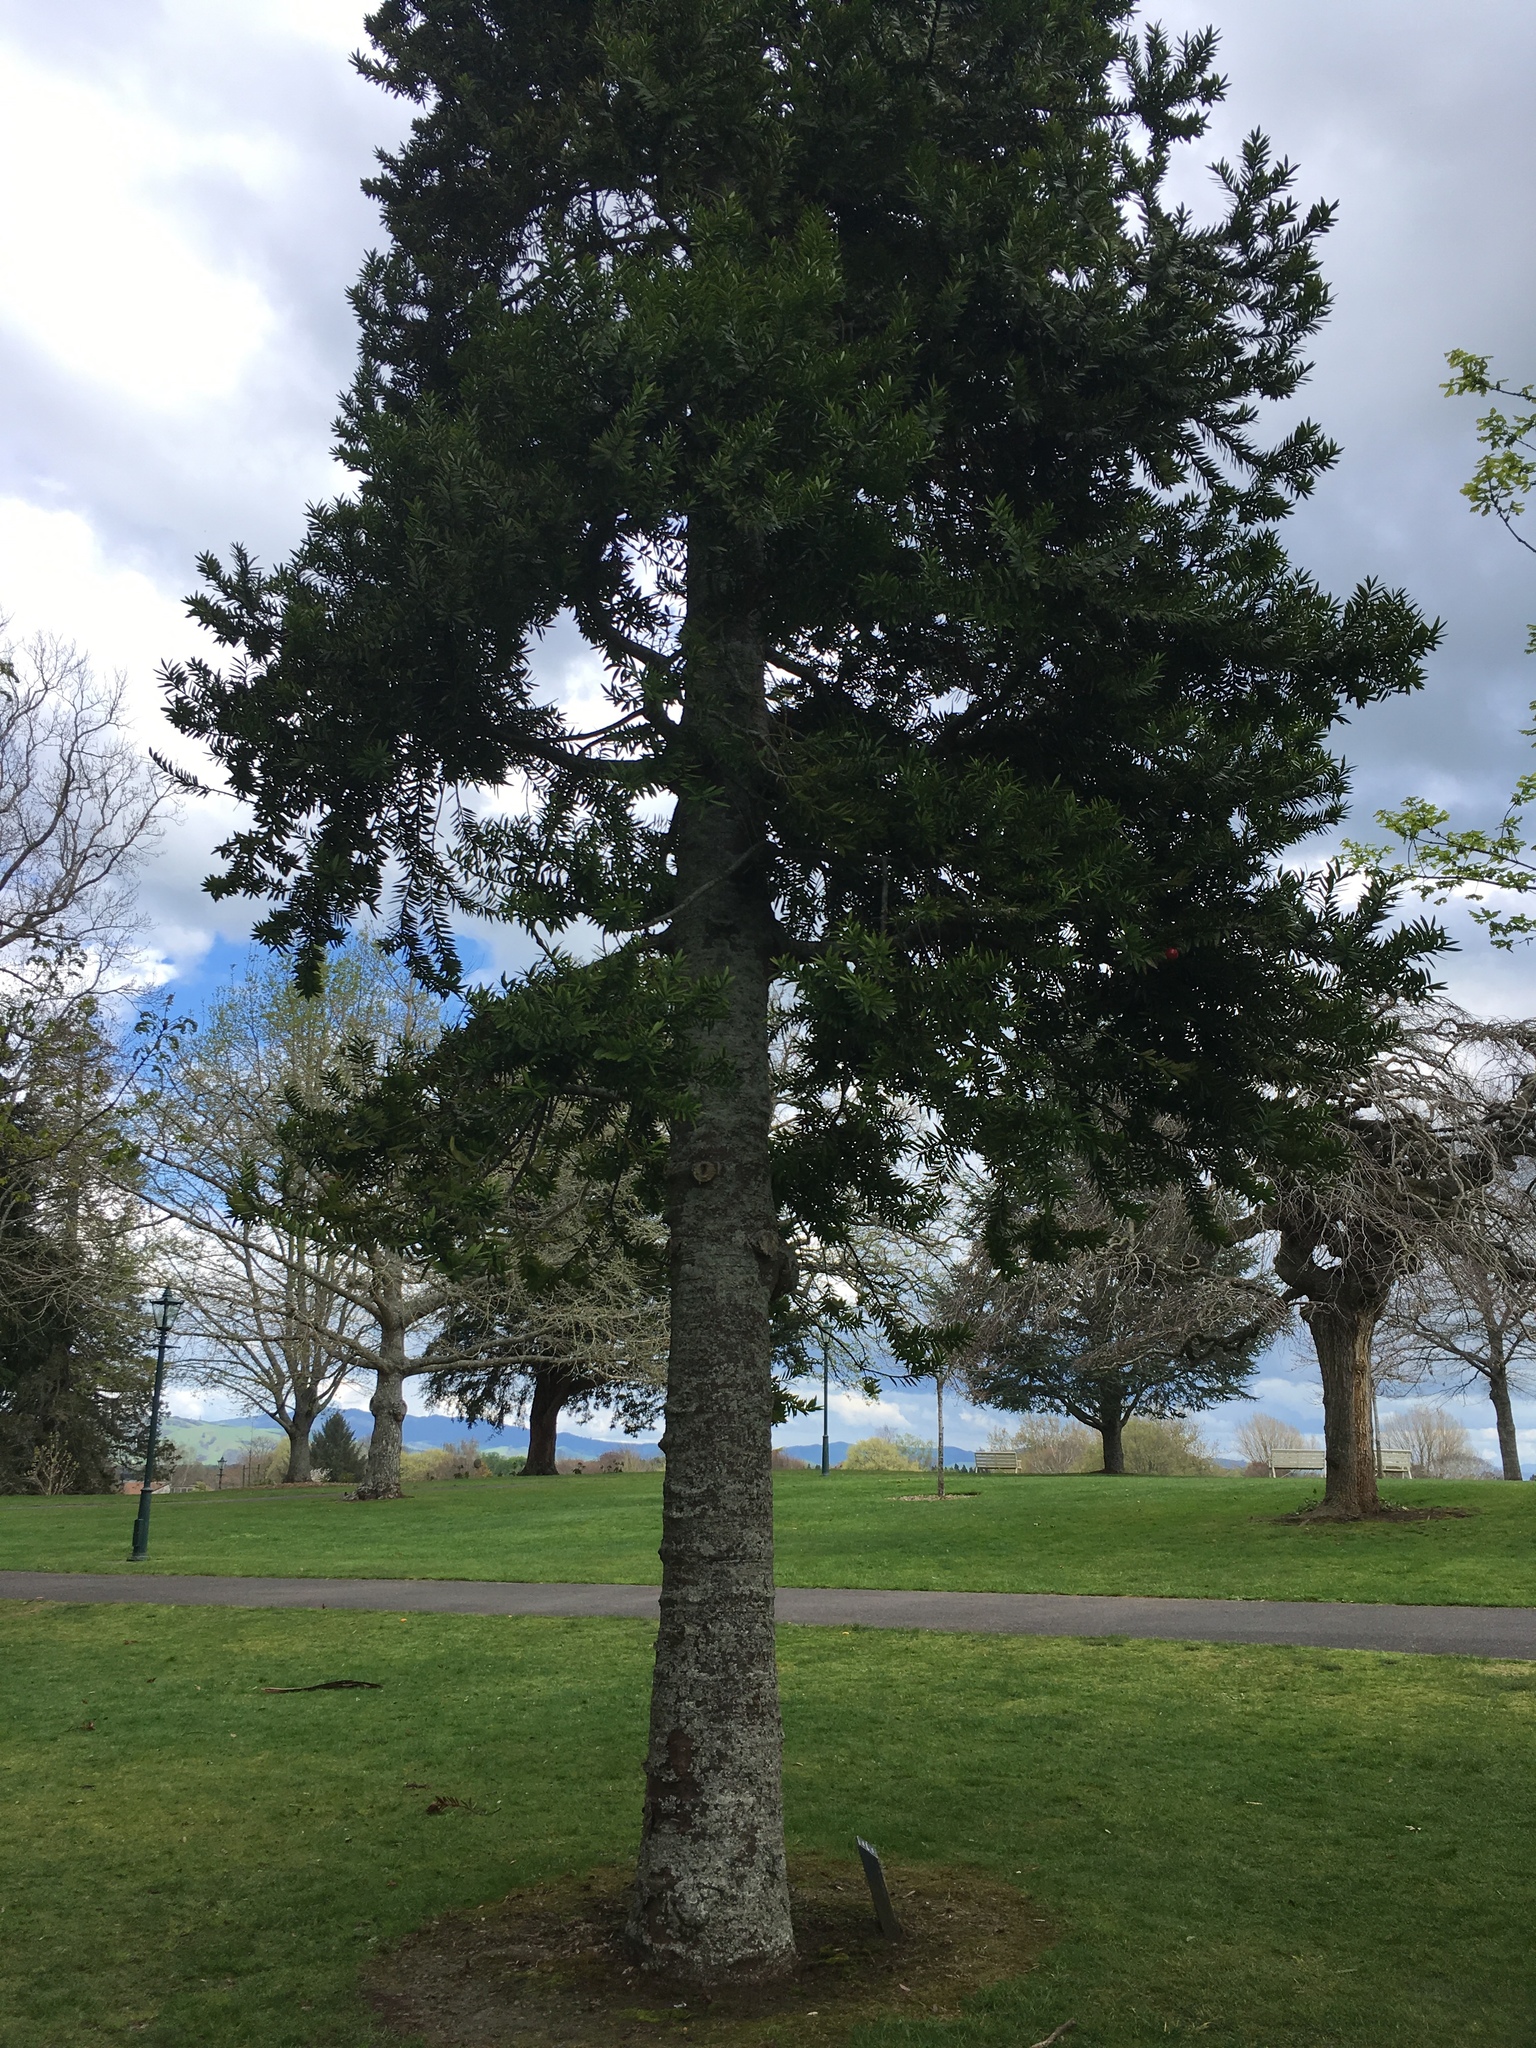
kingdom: Plantae
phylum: Tracheophyta
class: Pinopsida
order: Pinales
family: Araucariaceae
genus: Agathis
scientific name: Agathis australis
